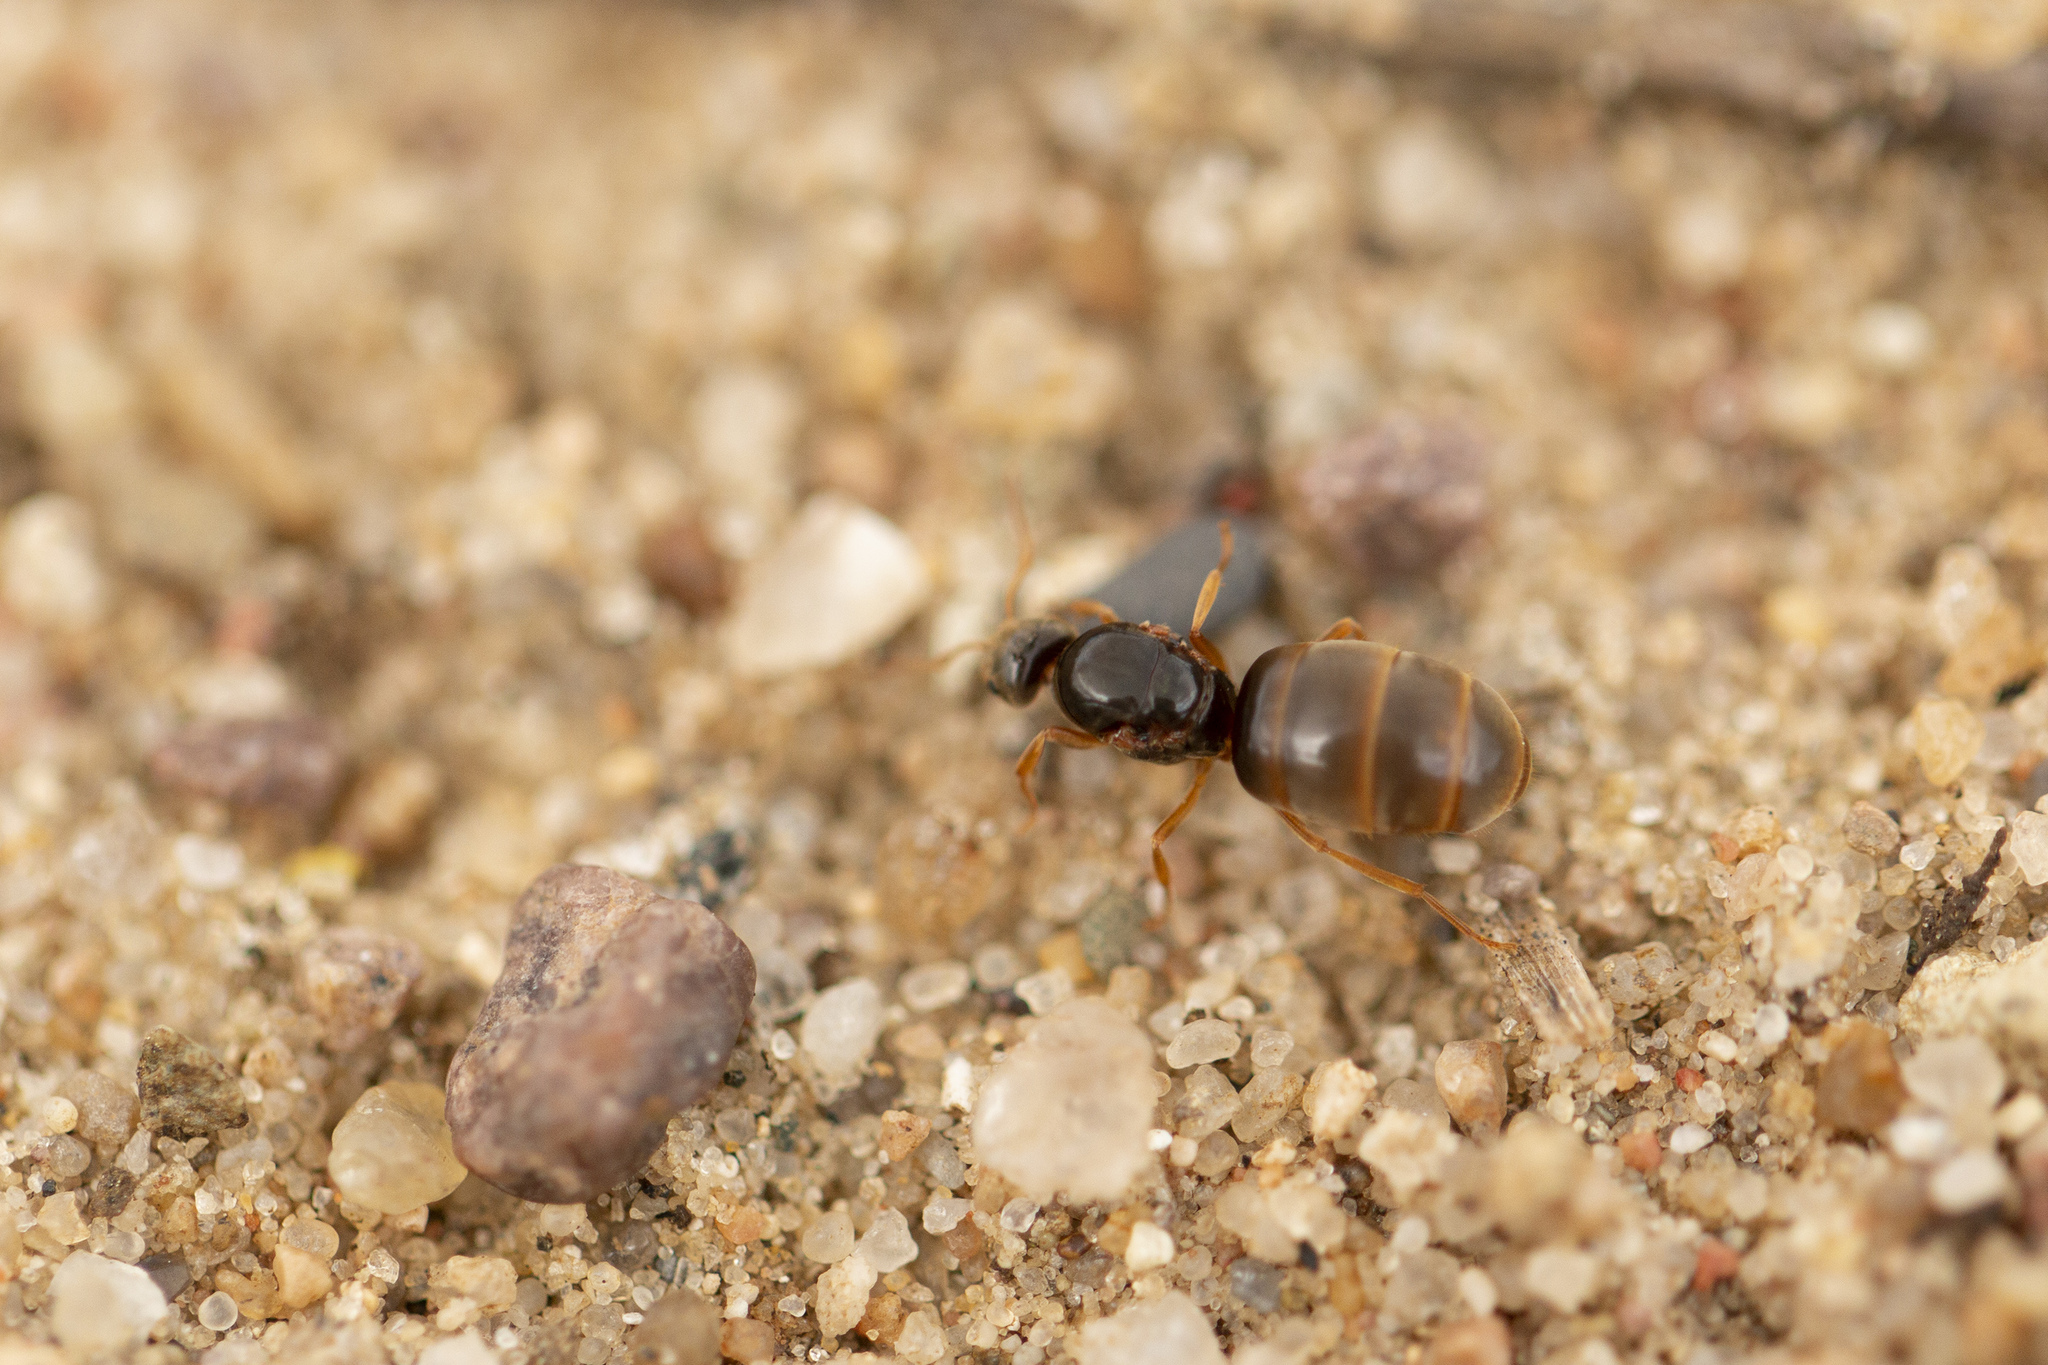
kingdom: Animalia
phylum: Arthropoda
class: Insecta
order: Hymenoptera
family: Formicidae
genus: Lasius
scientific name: Lasius flavus
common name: Blond field ant
